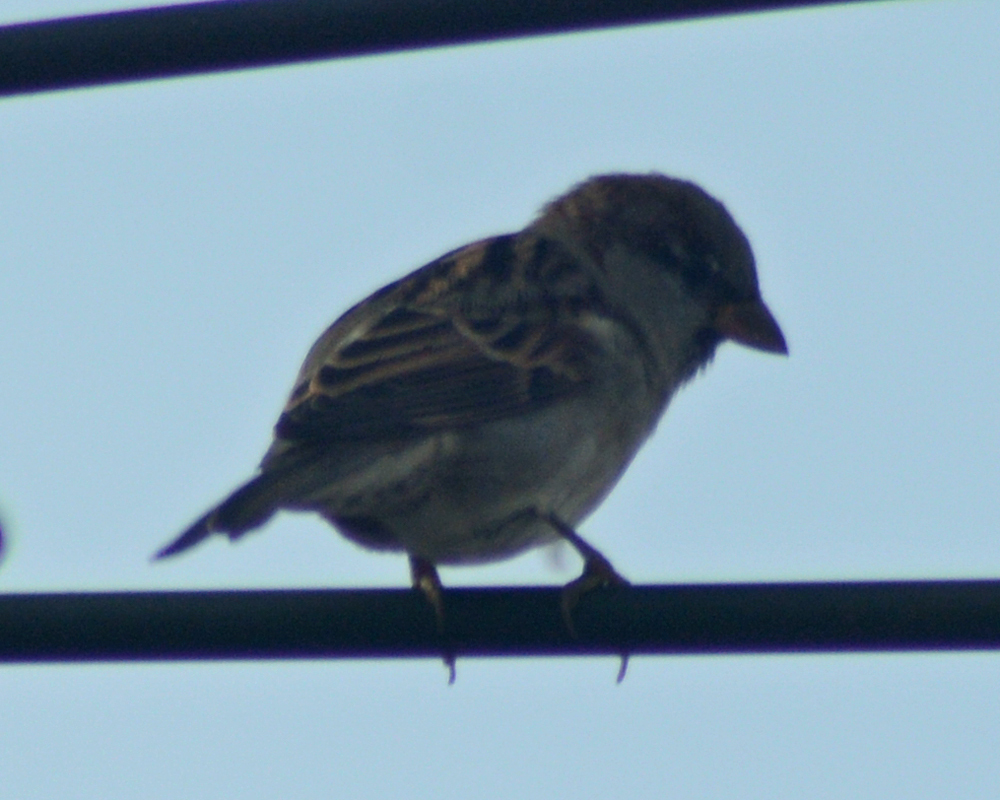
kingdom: Animalia
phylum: Chordata
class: Aves
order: Passeriformes
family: Passeridae
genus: Passer
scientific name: Passer domesticus
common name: House sparrow
